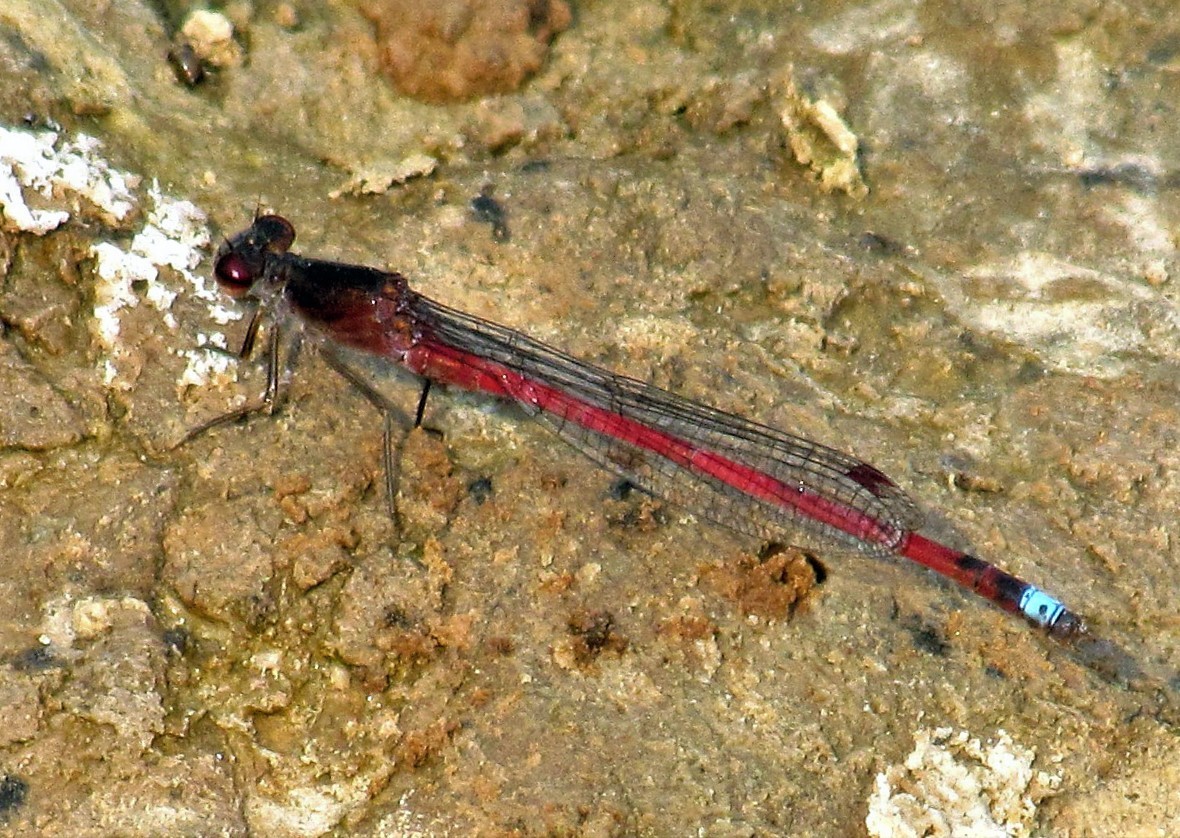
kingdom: Animalia
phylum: Arthropoda
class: Insecta
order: Odonata
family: Coenagrionidae
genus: Oxyagrion
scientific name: Oxyagrion rubidum
